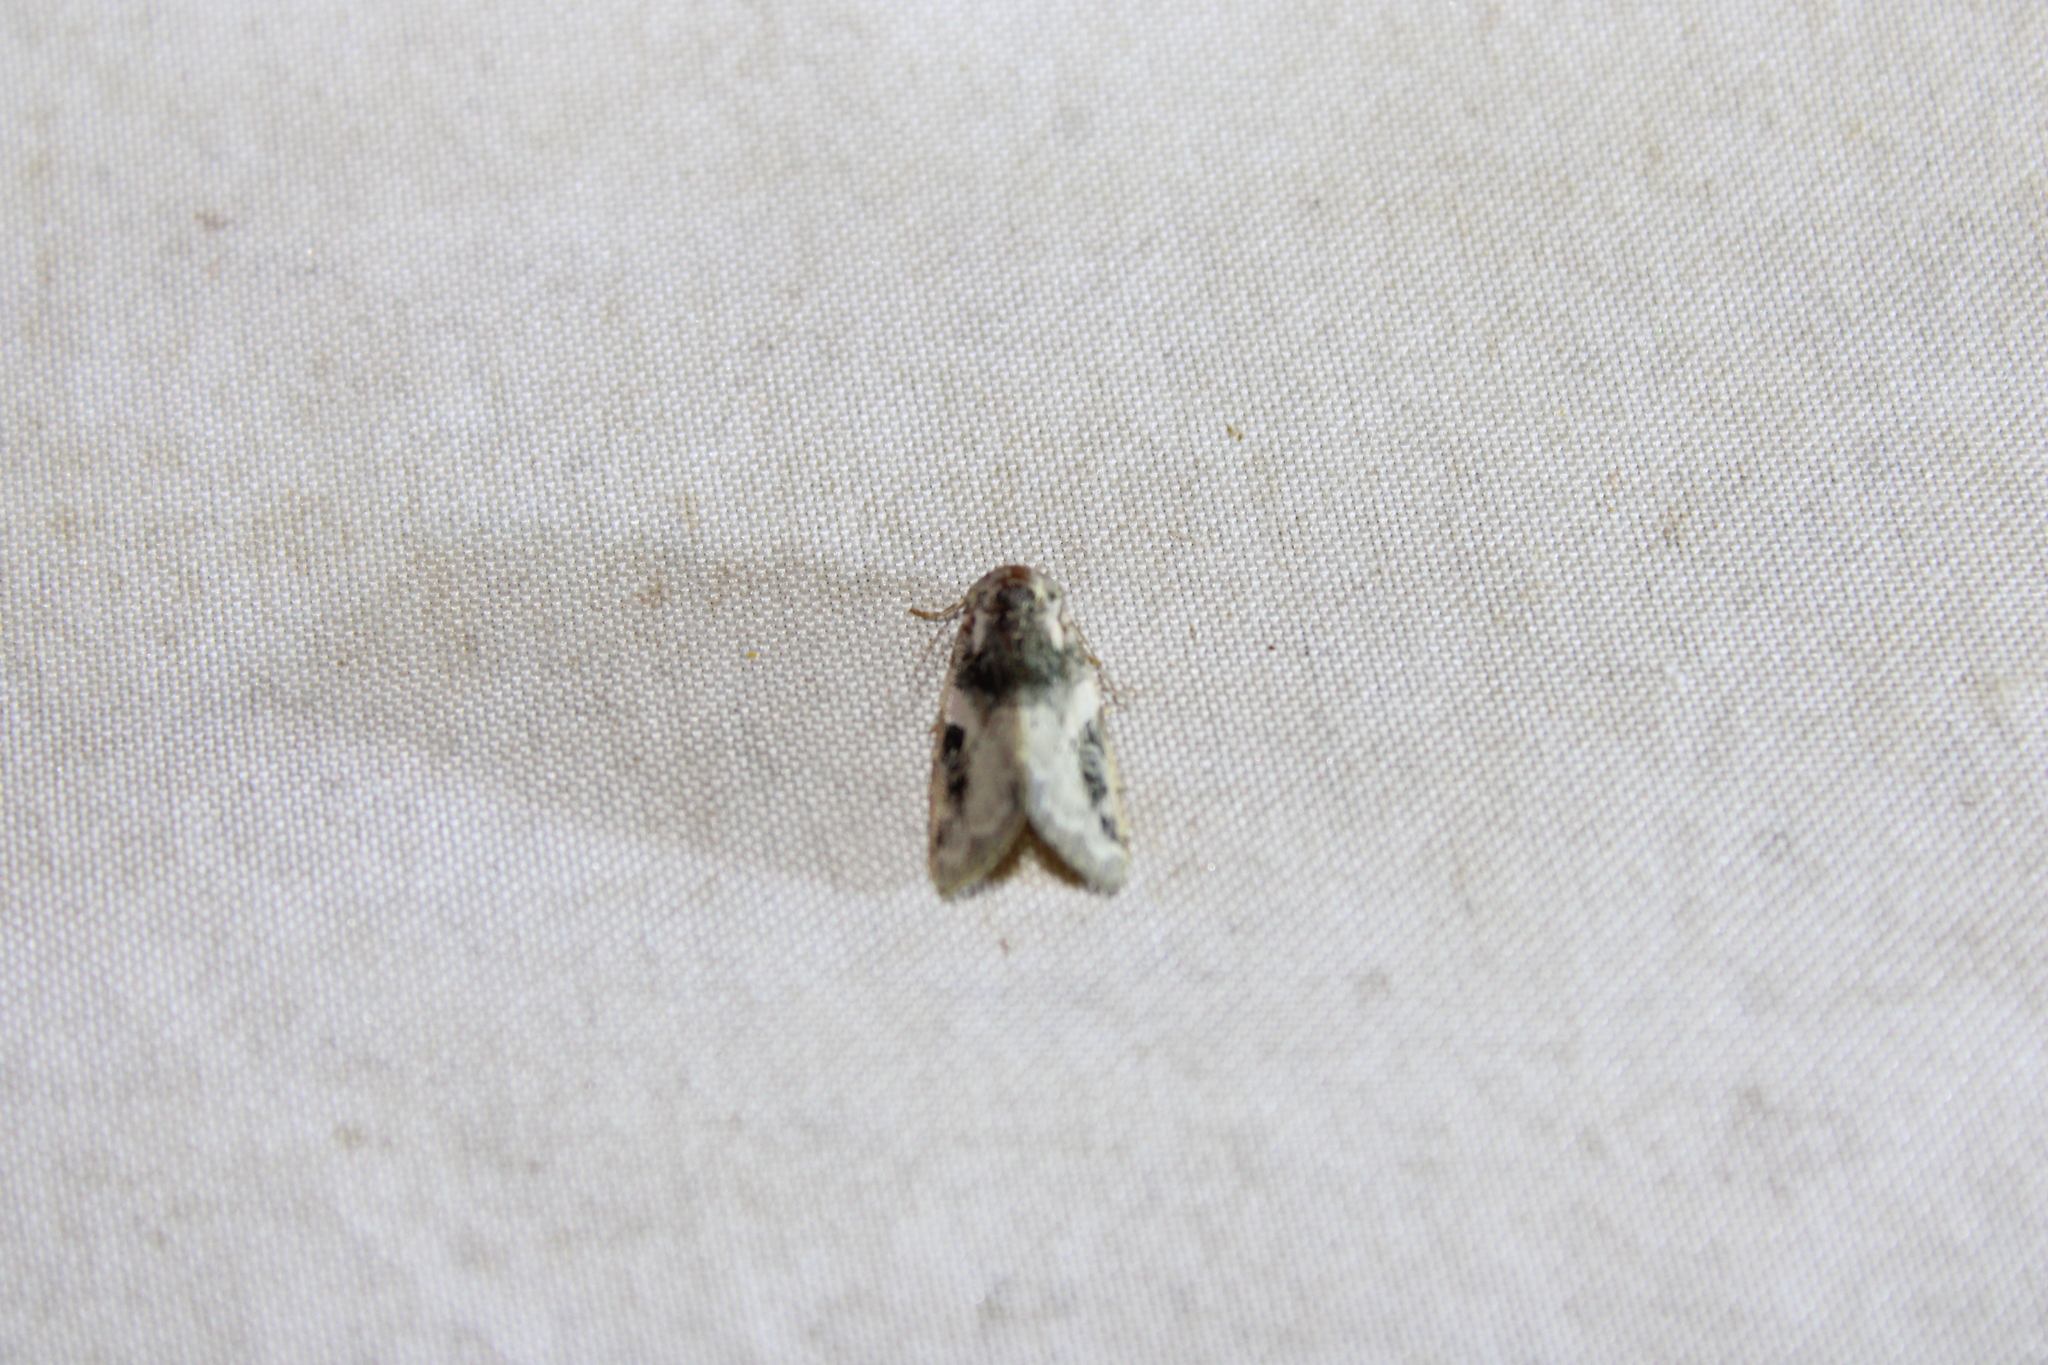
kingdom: Animalia
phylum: Arthropoda
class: Insecta
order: Lepidoptera
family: Noctuidae
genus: Pseudeustrotia
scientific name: Pseudeustrotia carneola
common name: Pink-barred lithacodia moth
